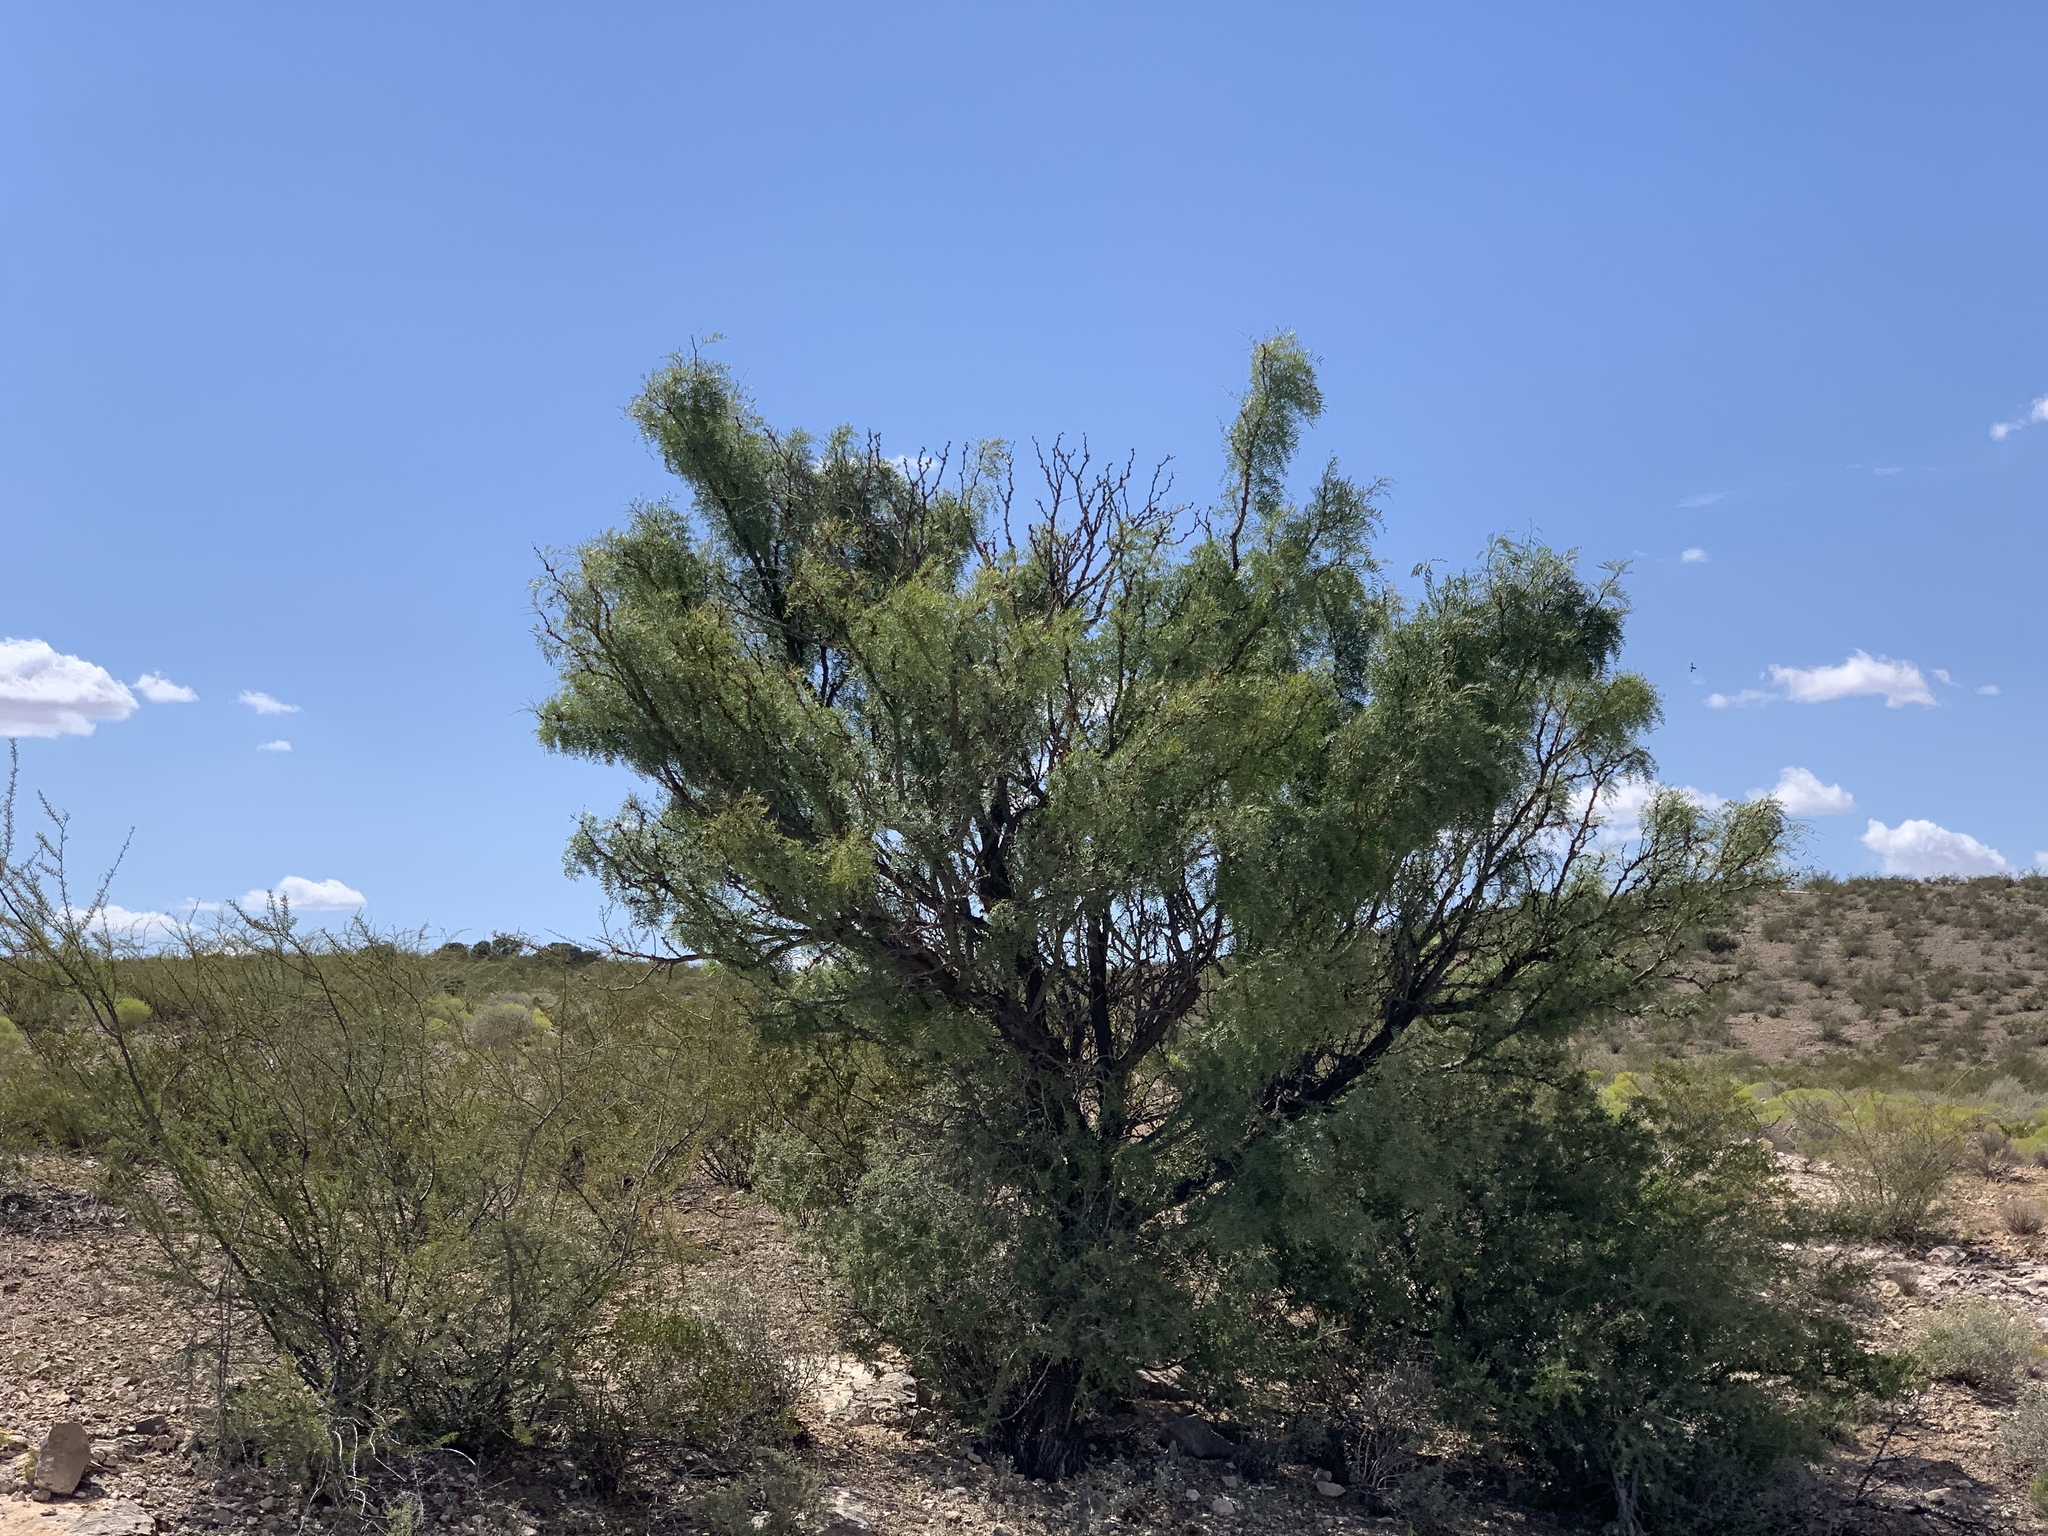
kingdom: Plantae
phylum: Tracheophyta
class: Magnoliopsida
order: Fabales
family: Fabaceae
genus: Prosopis
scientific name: Prosopis glandulosa
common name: Honey mesquite
